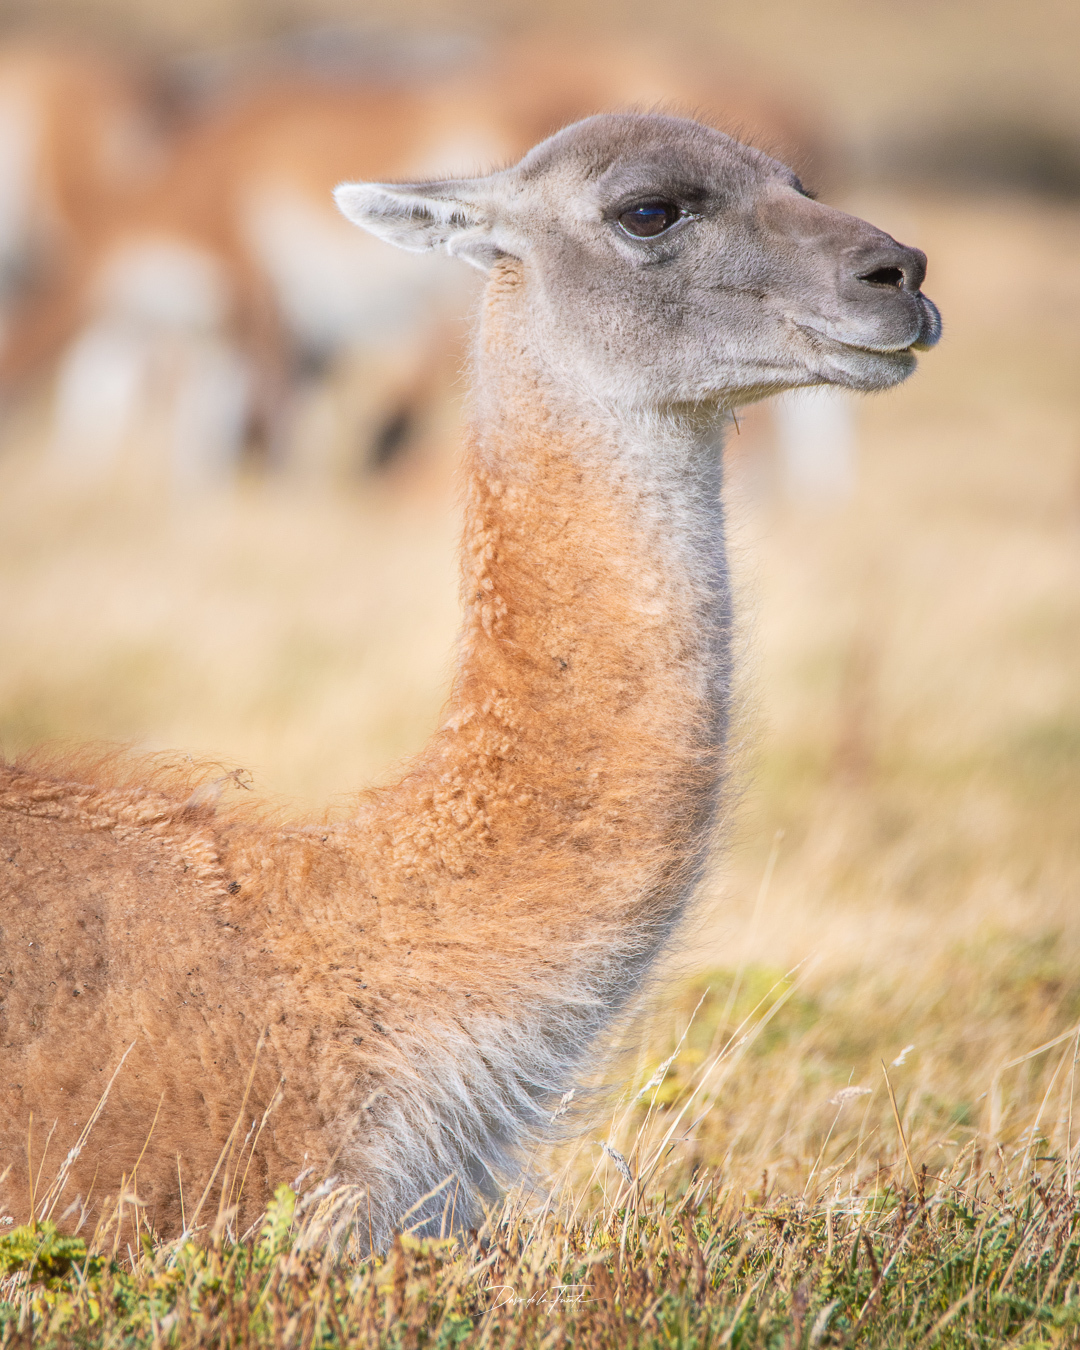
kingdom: Animalia
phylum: Chordata
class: Mammalia
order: Artiodactyla
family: Camelidae
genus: Lama
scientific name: Lama glama
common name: Llama
